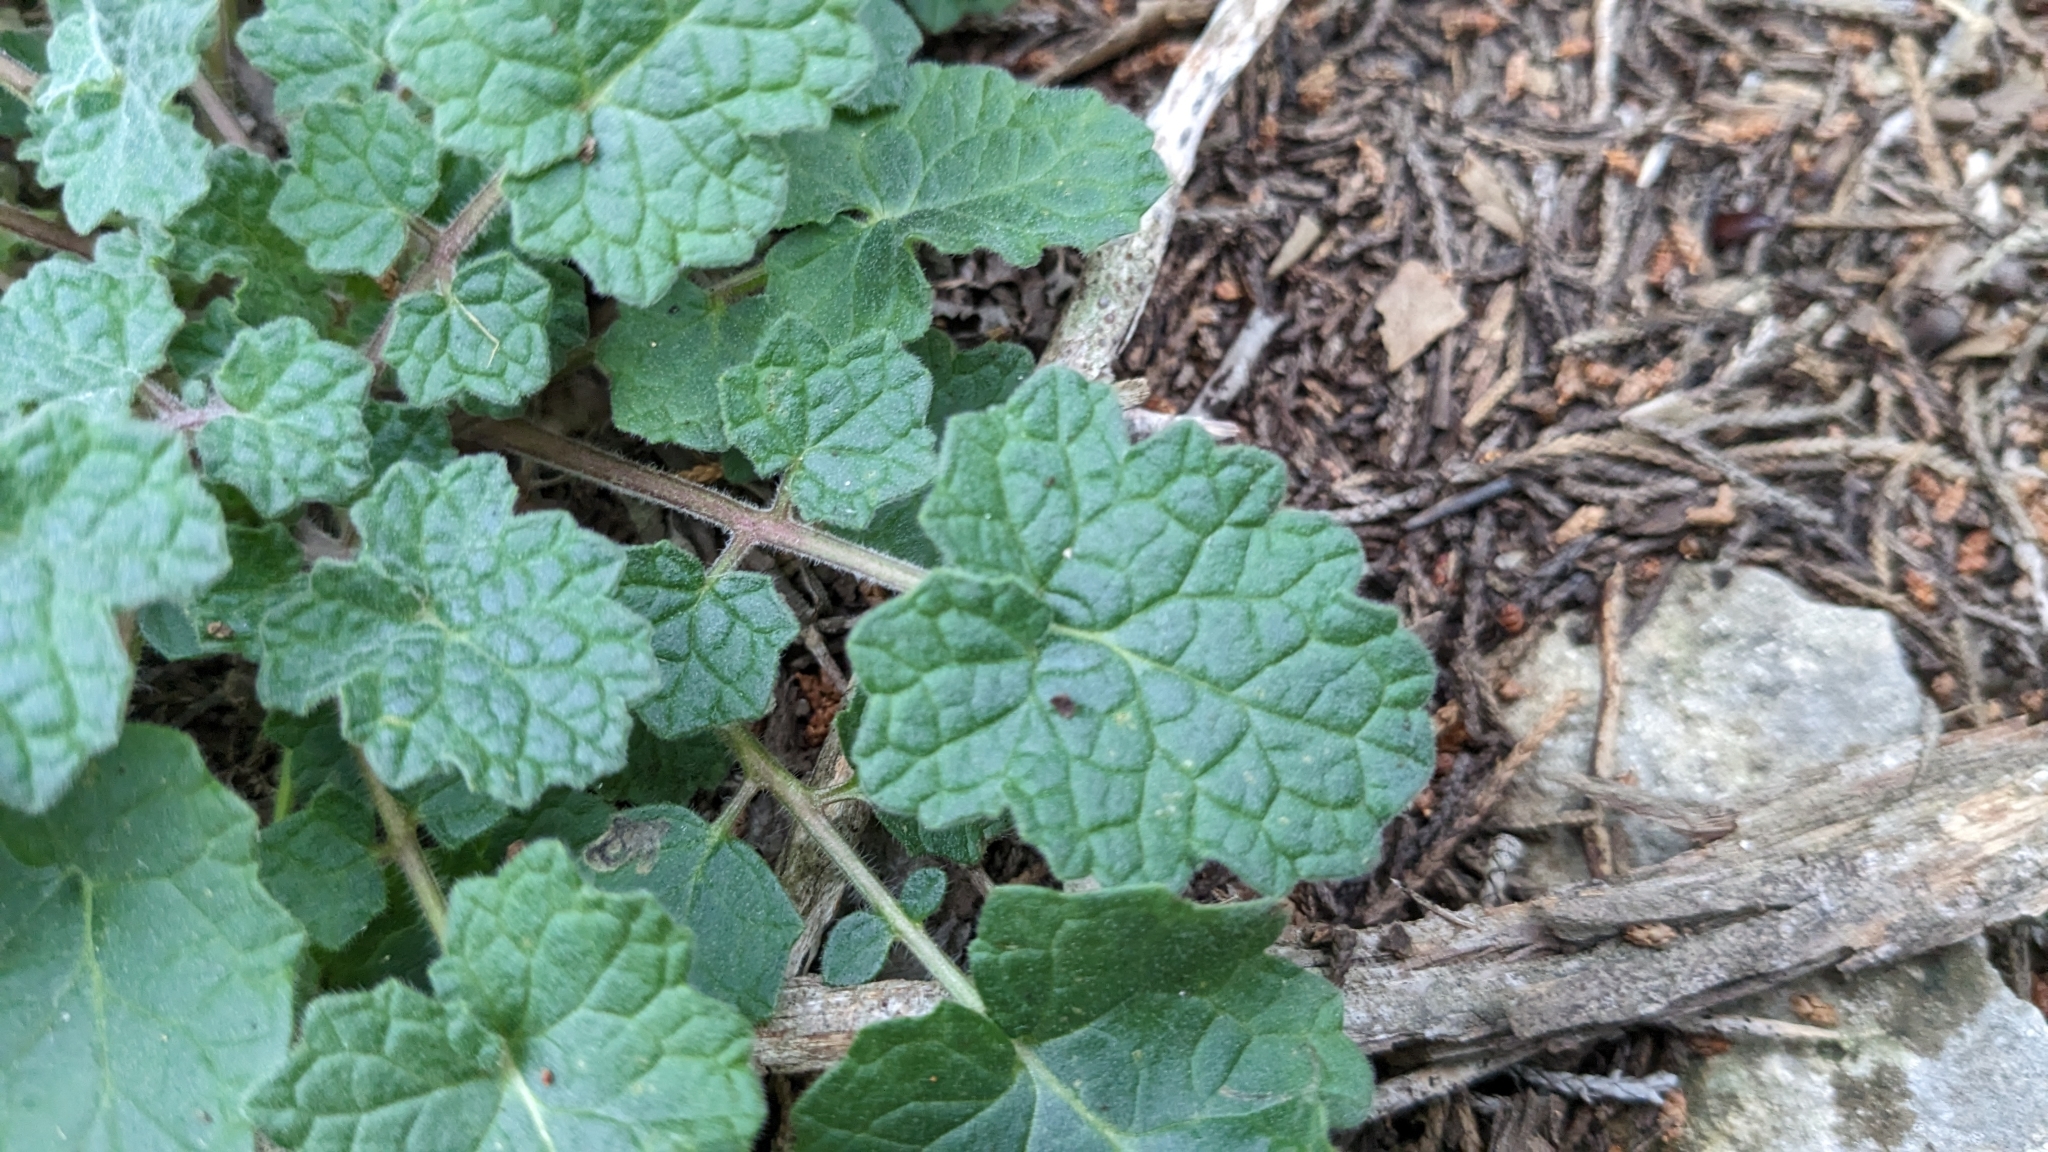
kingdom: Plantae
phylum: Tracheophyta
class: Magnoliopsida
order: Lamiales
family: Lamiaceae
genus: Salvia
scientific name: Salvia roemeriana
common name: Cedar sage
